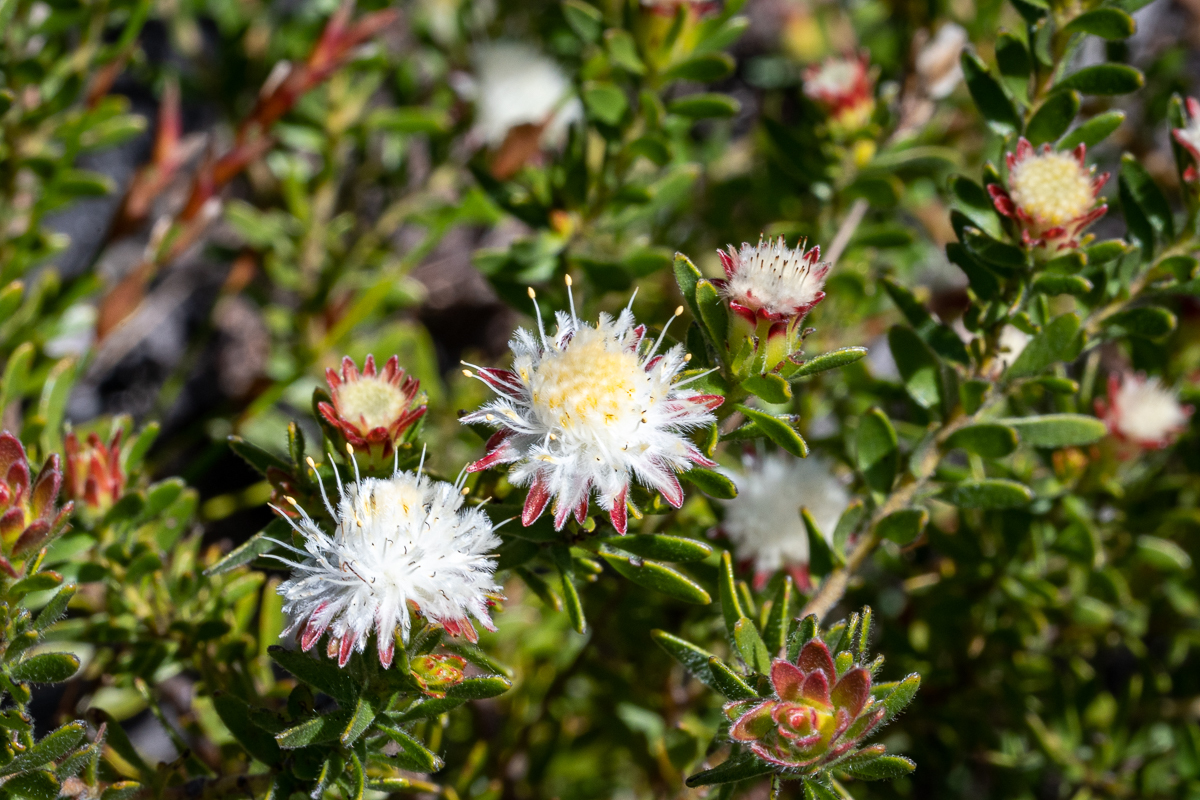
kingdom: Plantae
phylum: Tracheophyta
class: Magnoliopsida
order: Proteales
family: Proteaceae
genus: Diastella
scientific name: Diastella fraterna
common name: Palmiet silkypuff
